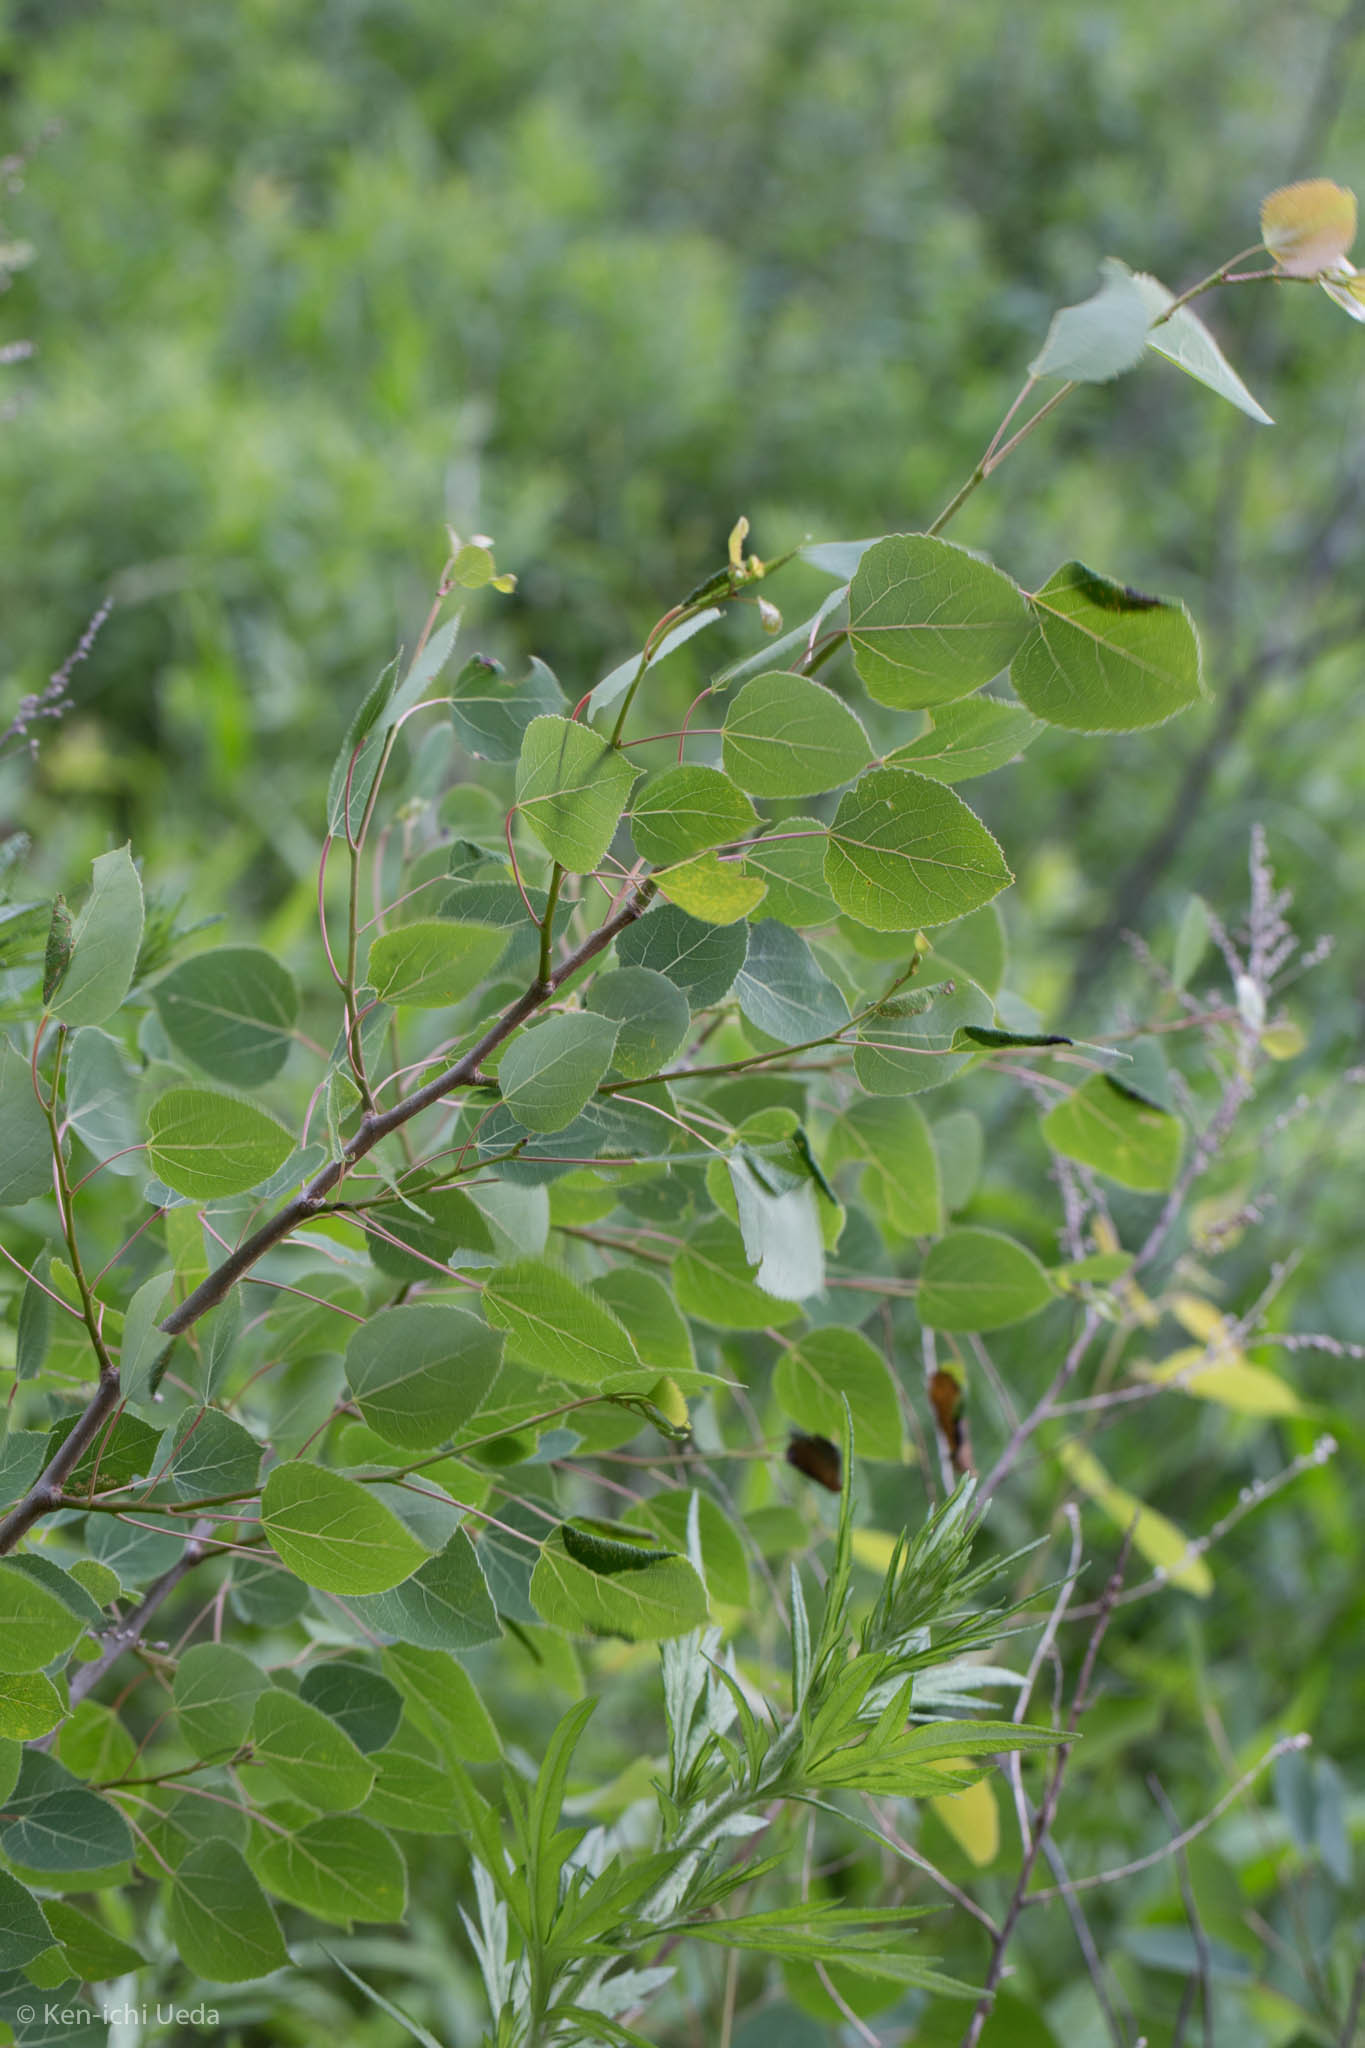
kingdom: Plantae
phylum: Tracheophyta
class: Magnoliopsida
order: Malpighiales
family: Salicaceae
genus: Populus
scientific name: Populus tremuloides
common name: Quaking aspen
